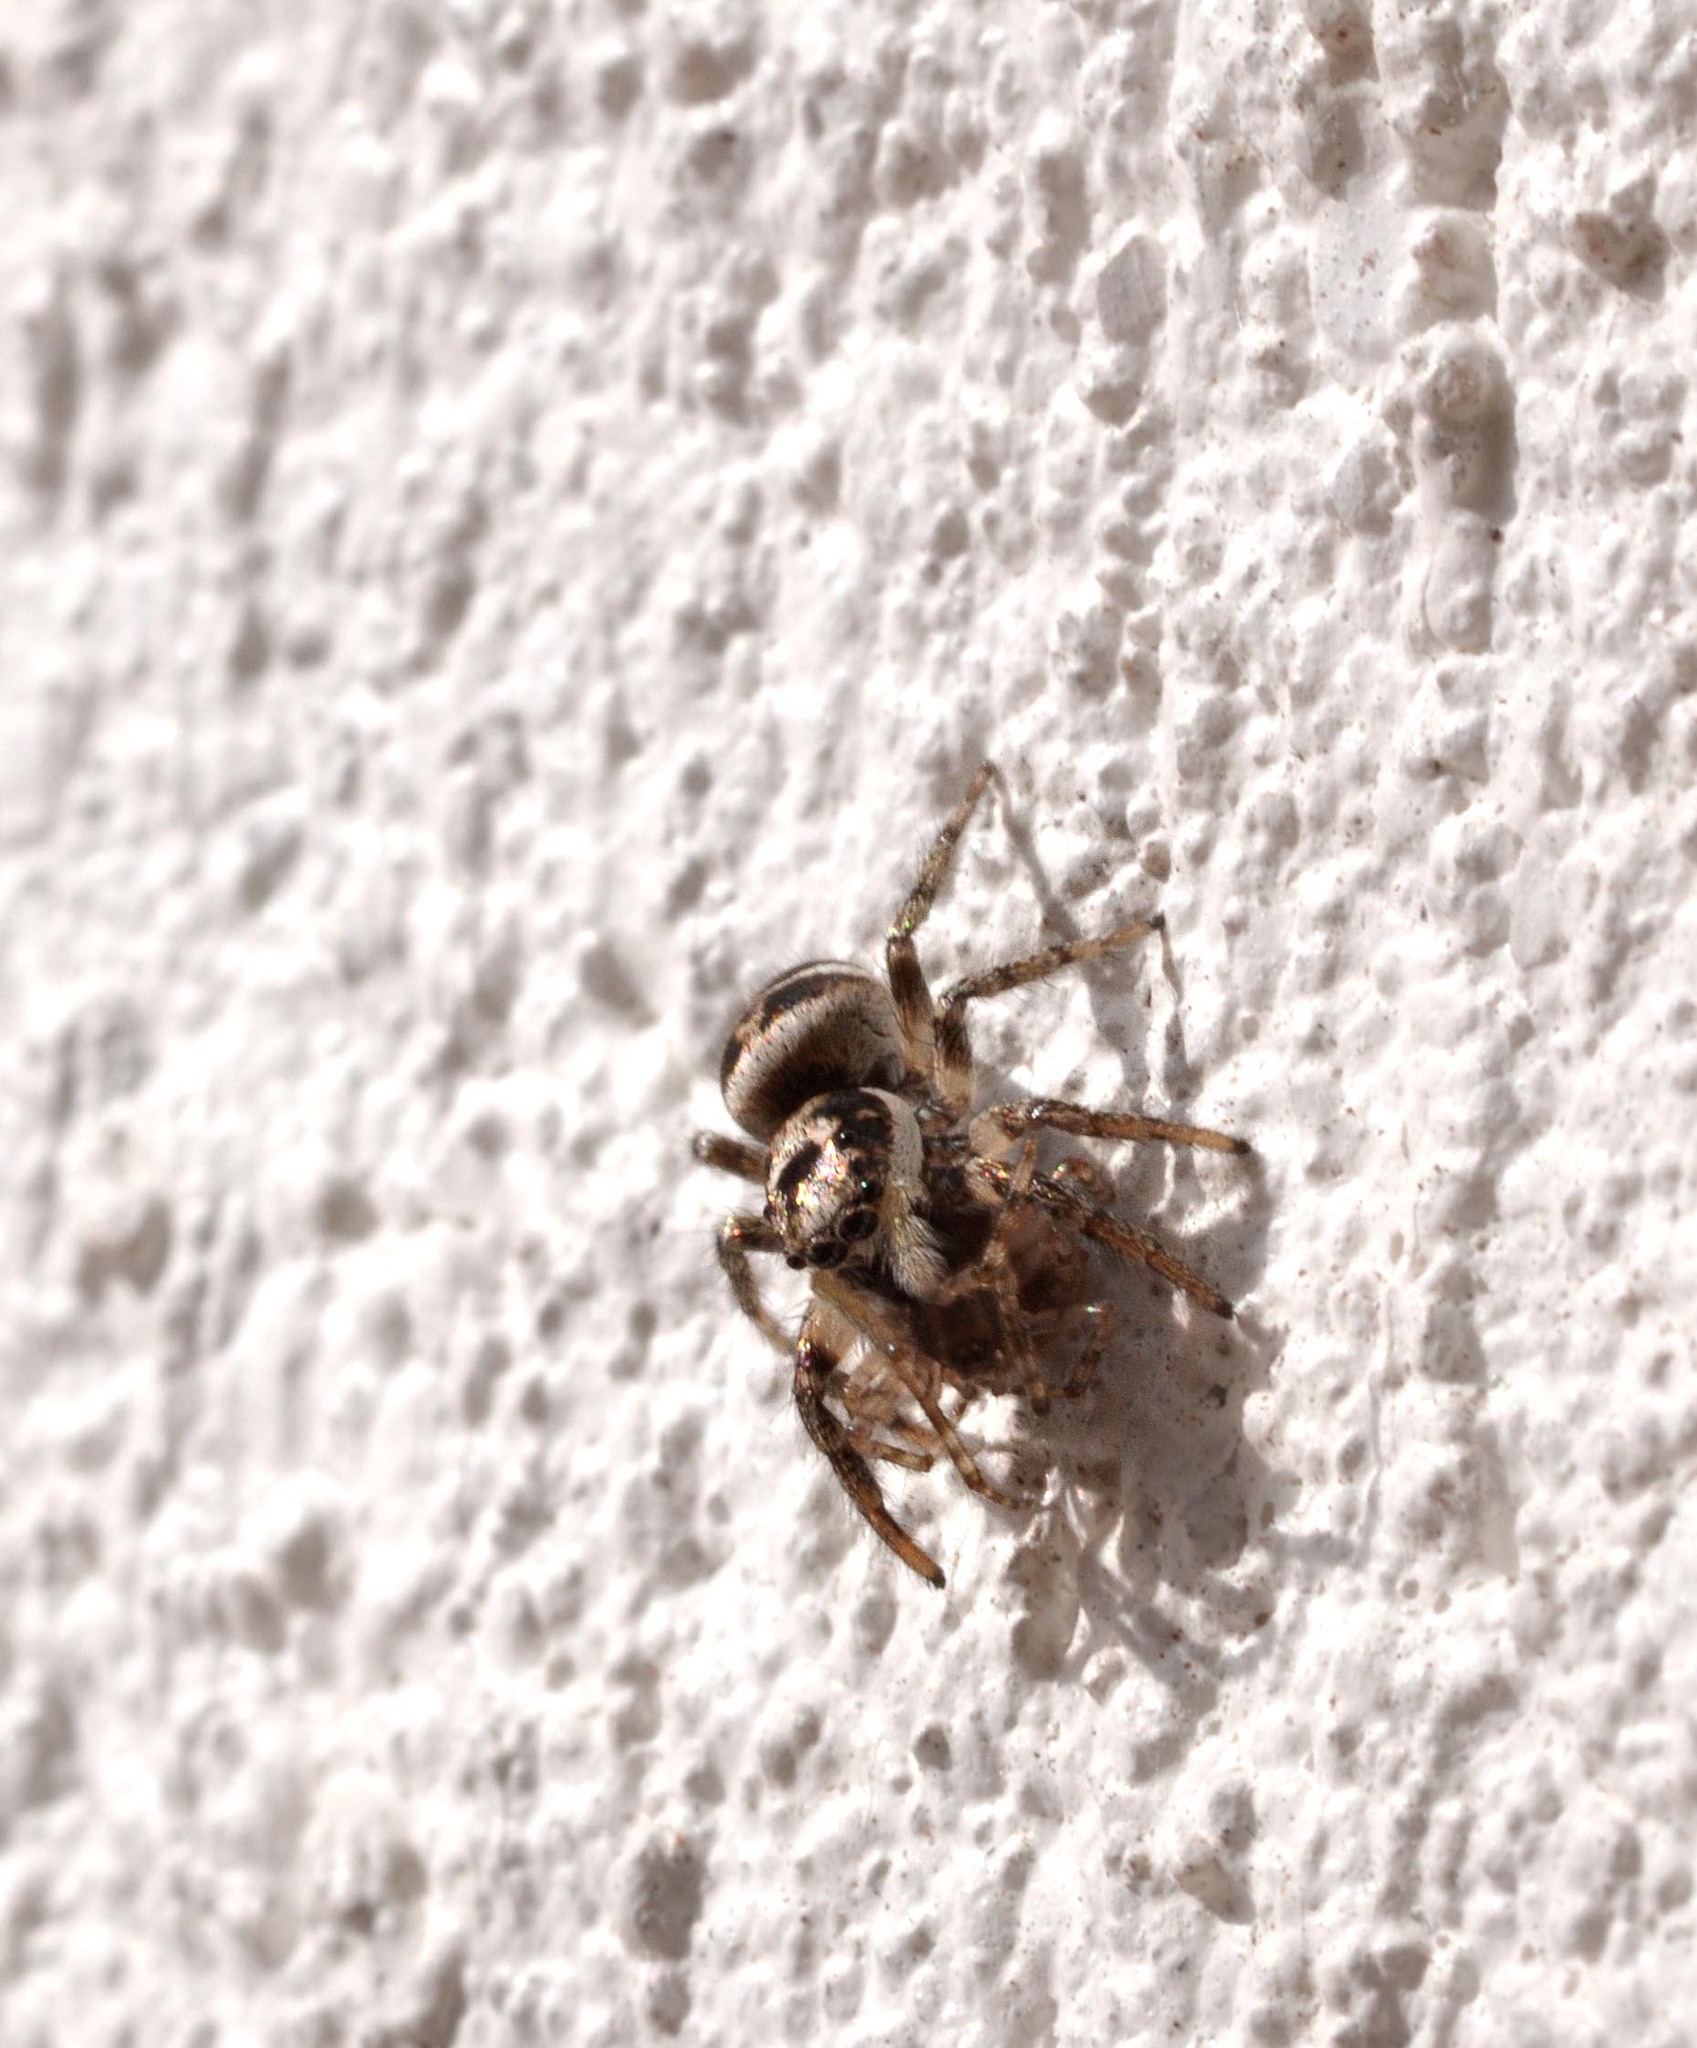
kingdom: Animalia
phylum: Arthropoda
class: Arachnida
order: Araneae
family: Salticidae
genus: Salticus
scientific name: Salticus scenicus
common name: Zebra jumper
